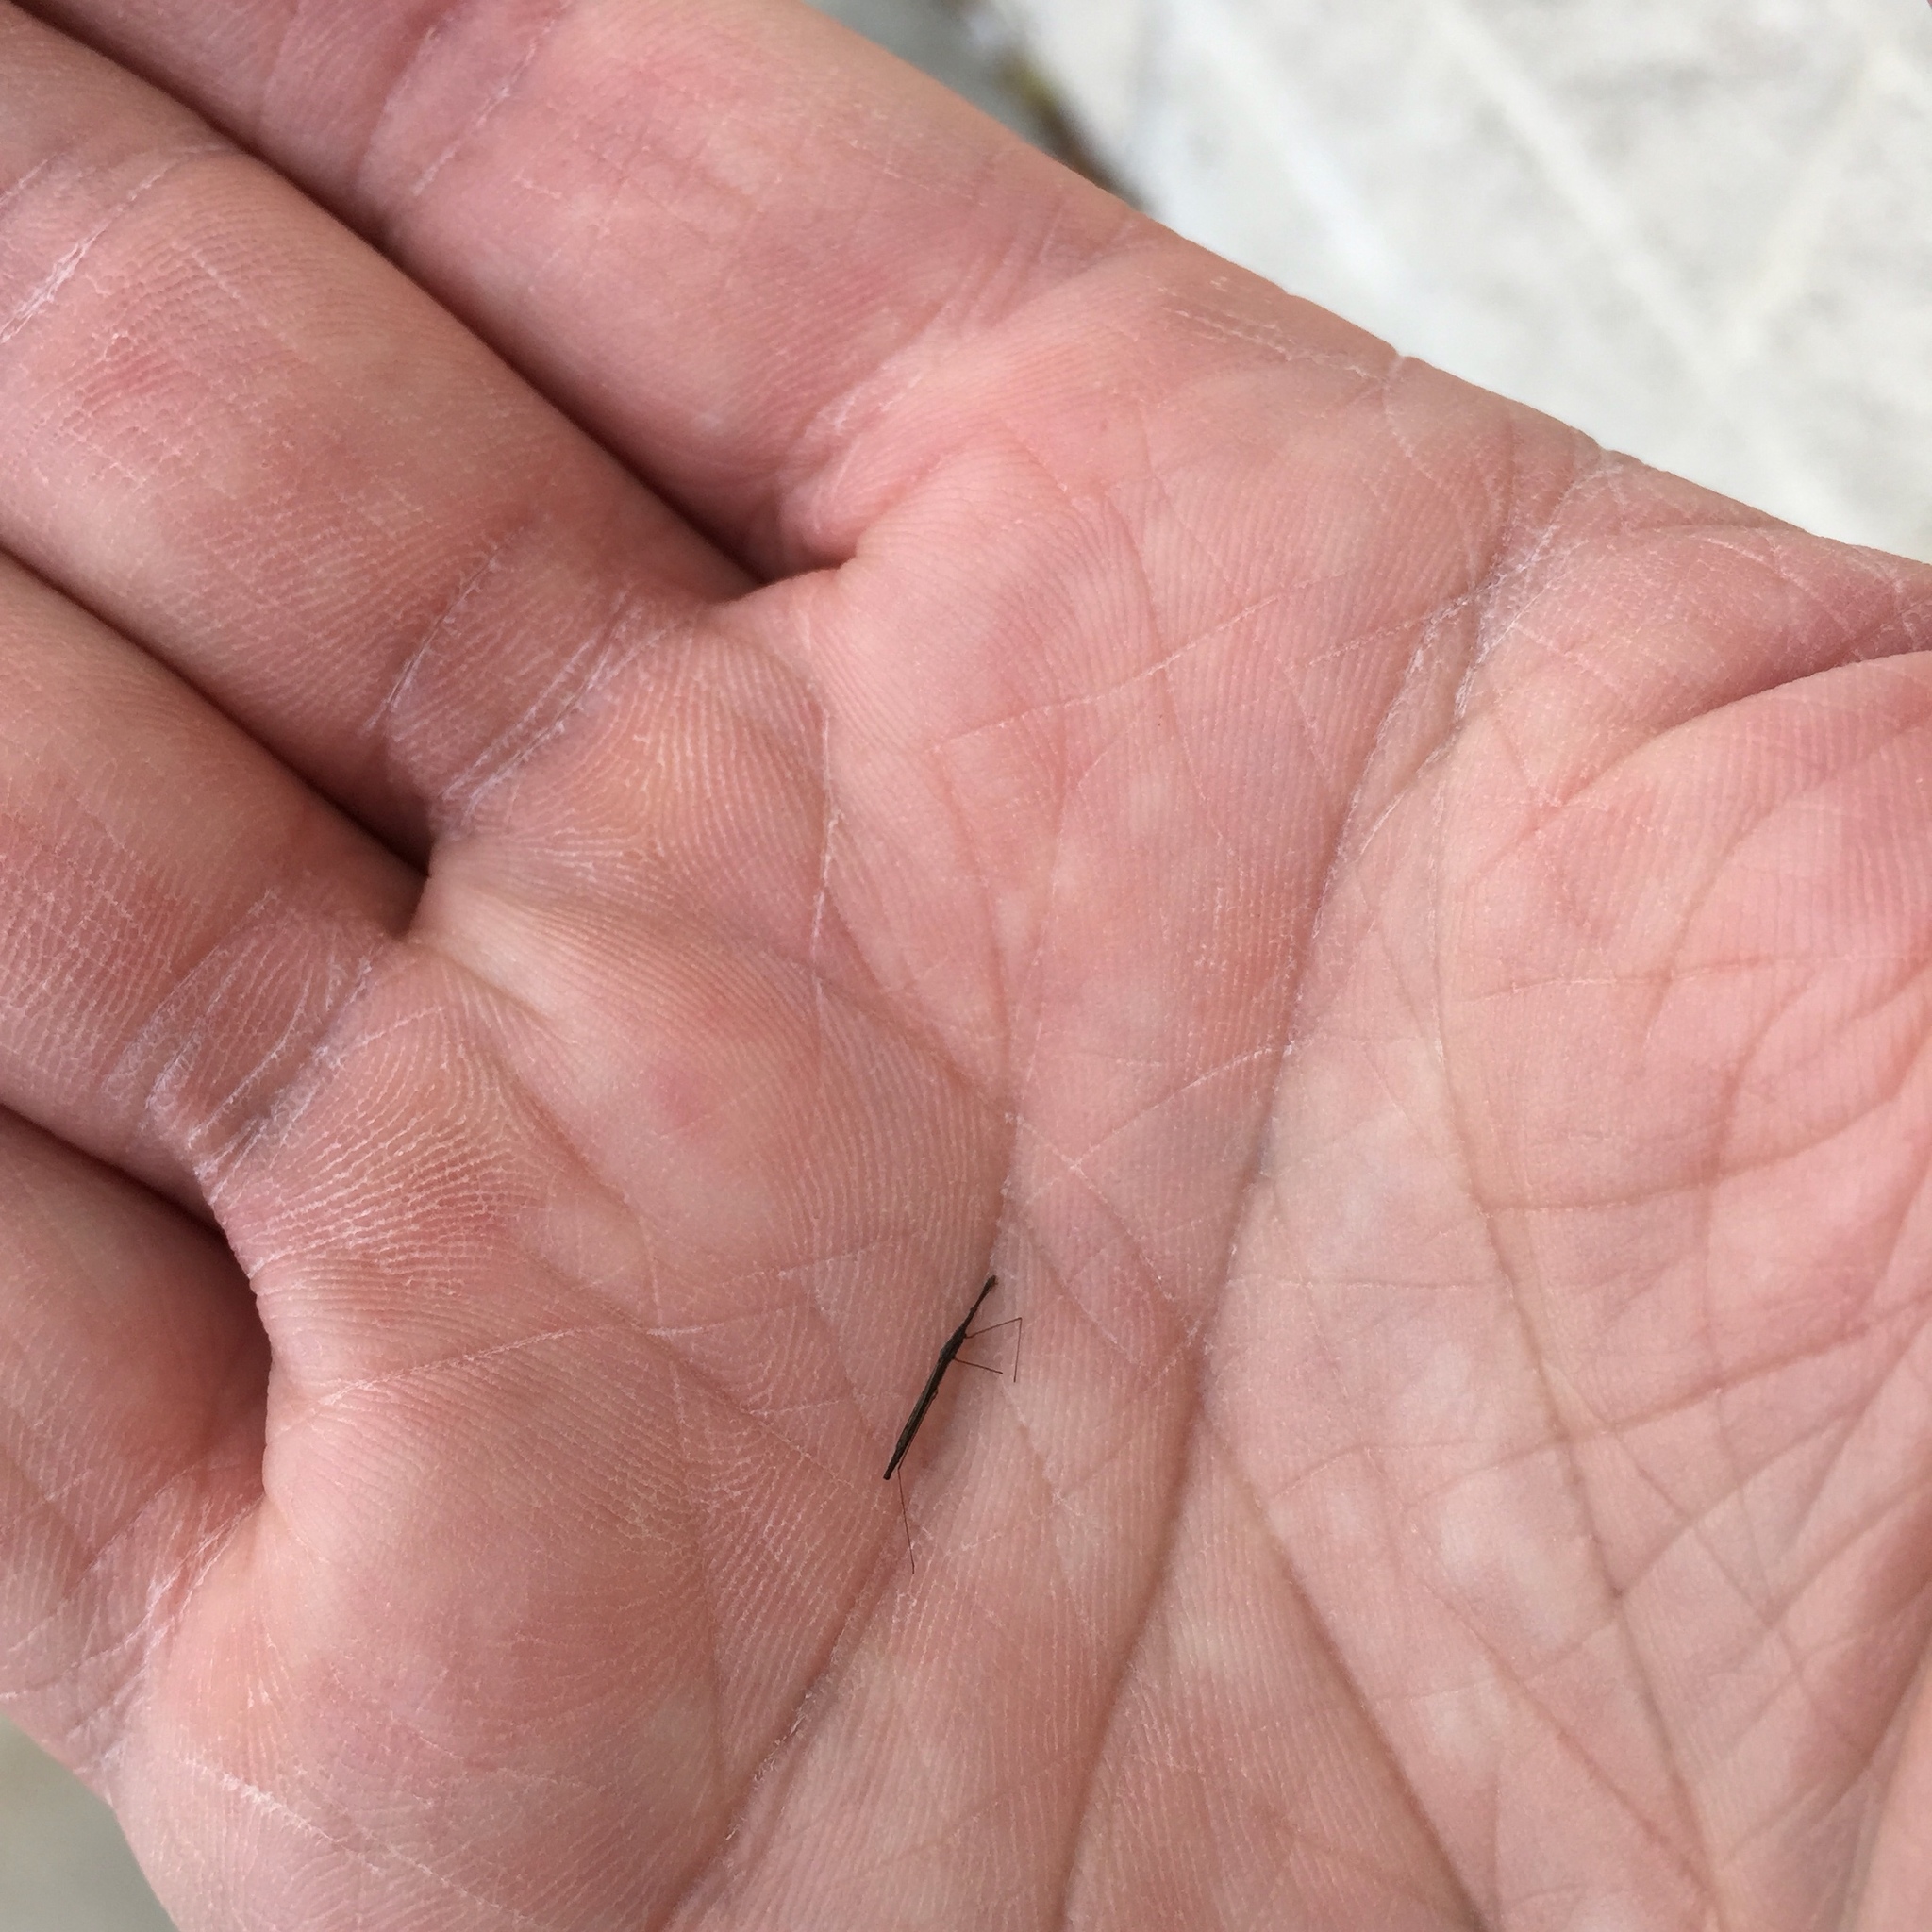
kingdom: Animalia
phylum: Arthropoda
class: Insecta
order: Hemiptera
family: Hydrometridae
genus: Hydrometra
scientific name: Hydrometra
